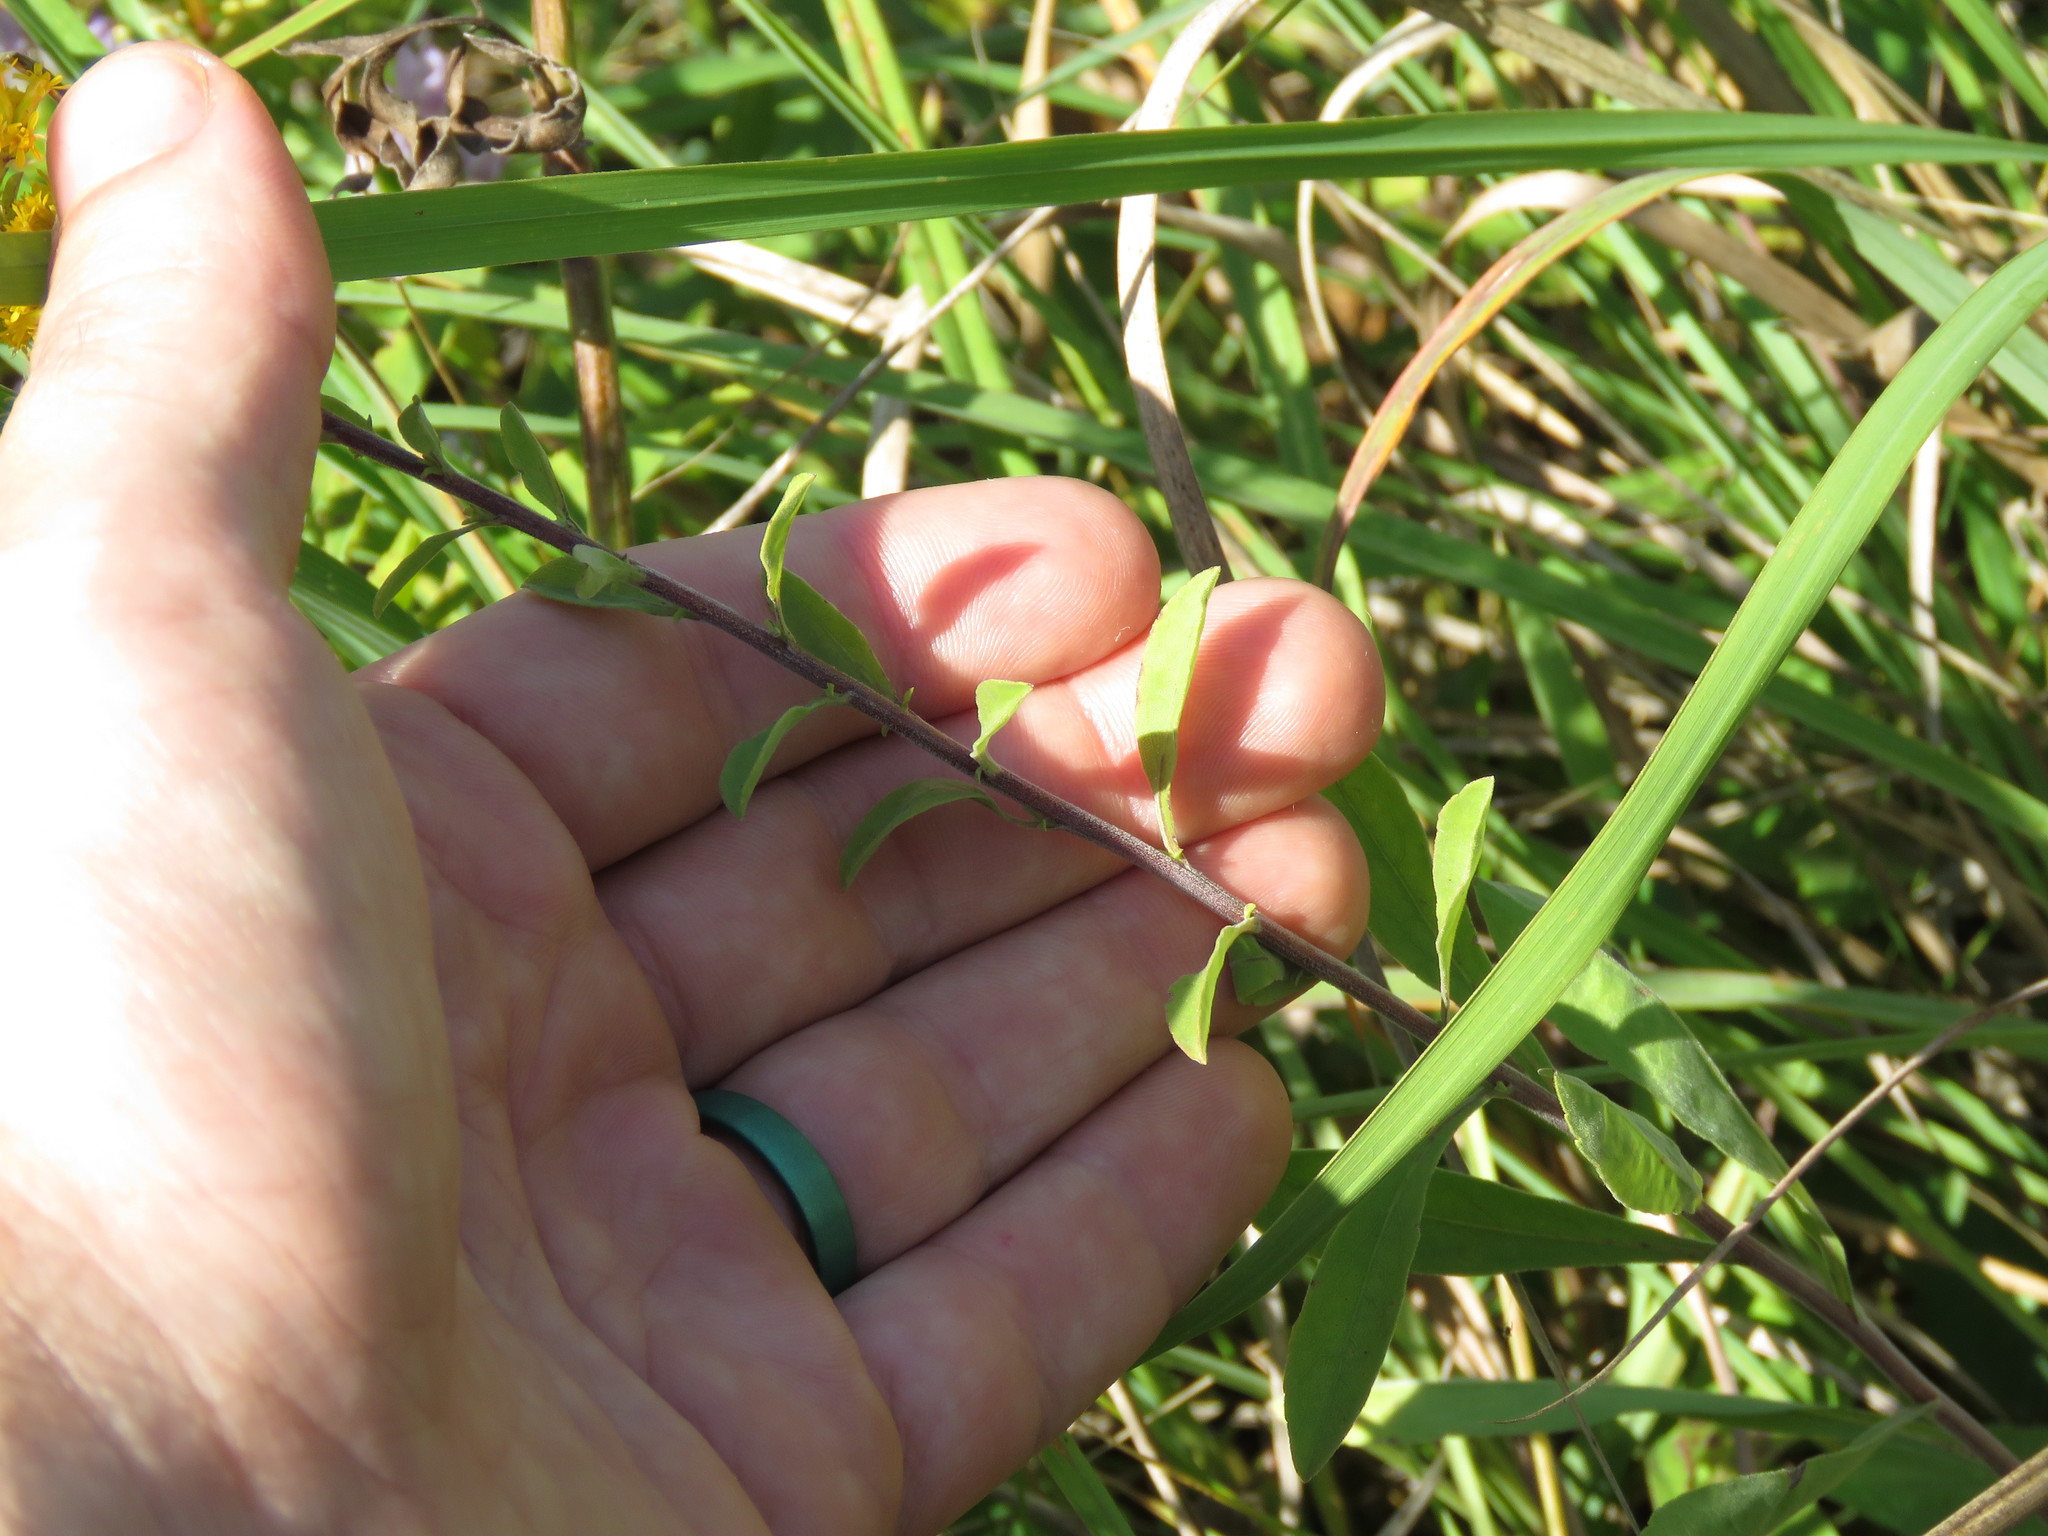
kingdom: Plantae
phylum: Tracheophyta
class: Magnoliopsida
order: Asterales
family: Asteraceae
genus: Solidago
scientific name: Solidago nemoralis
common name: Grey goldenrod
